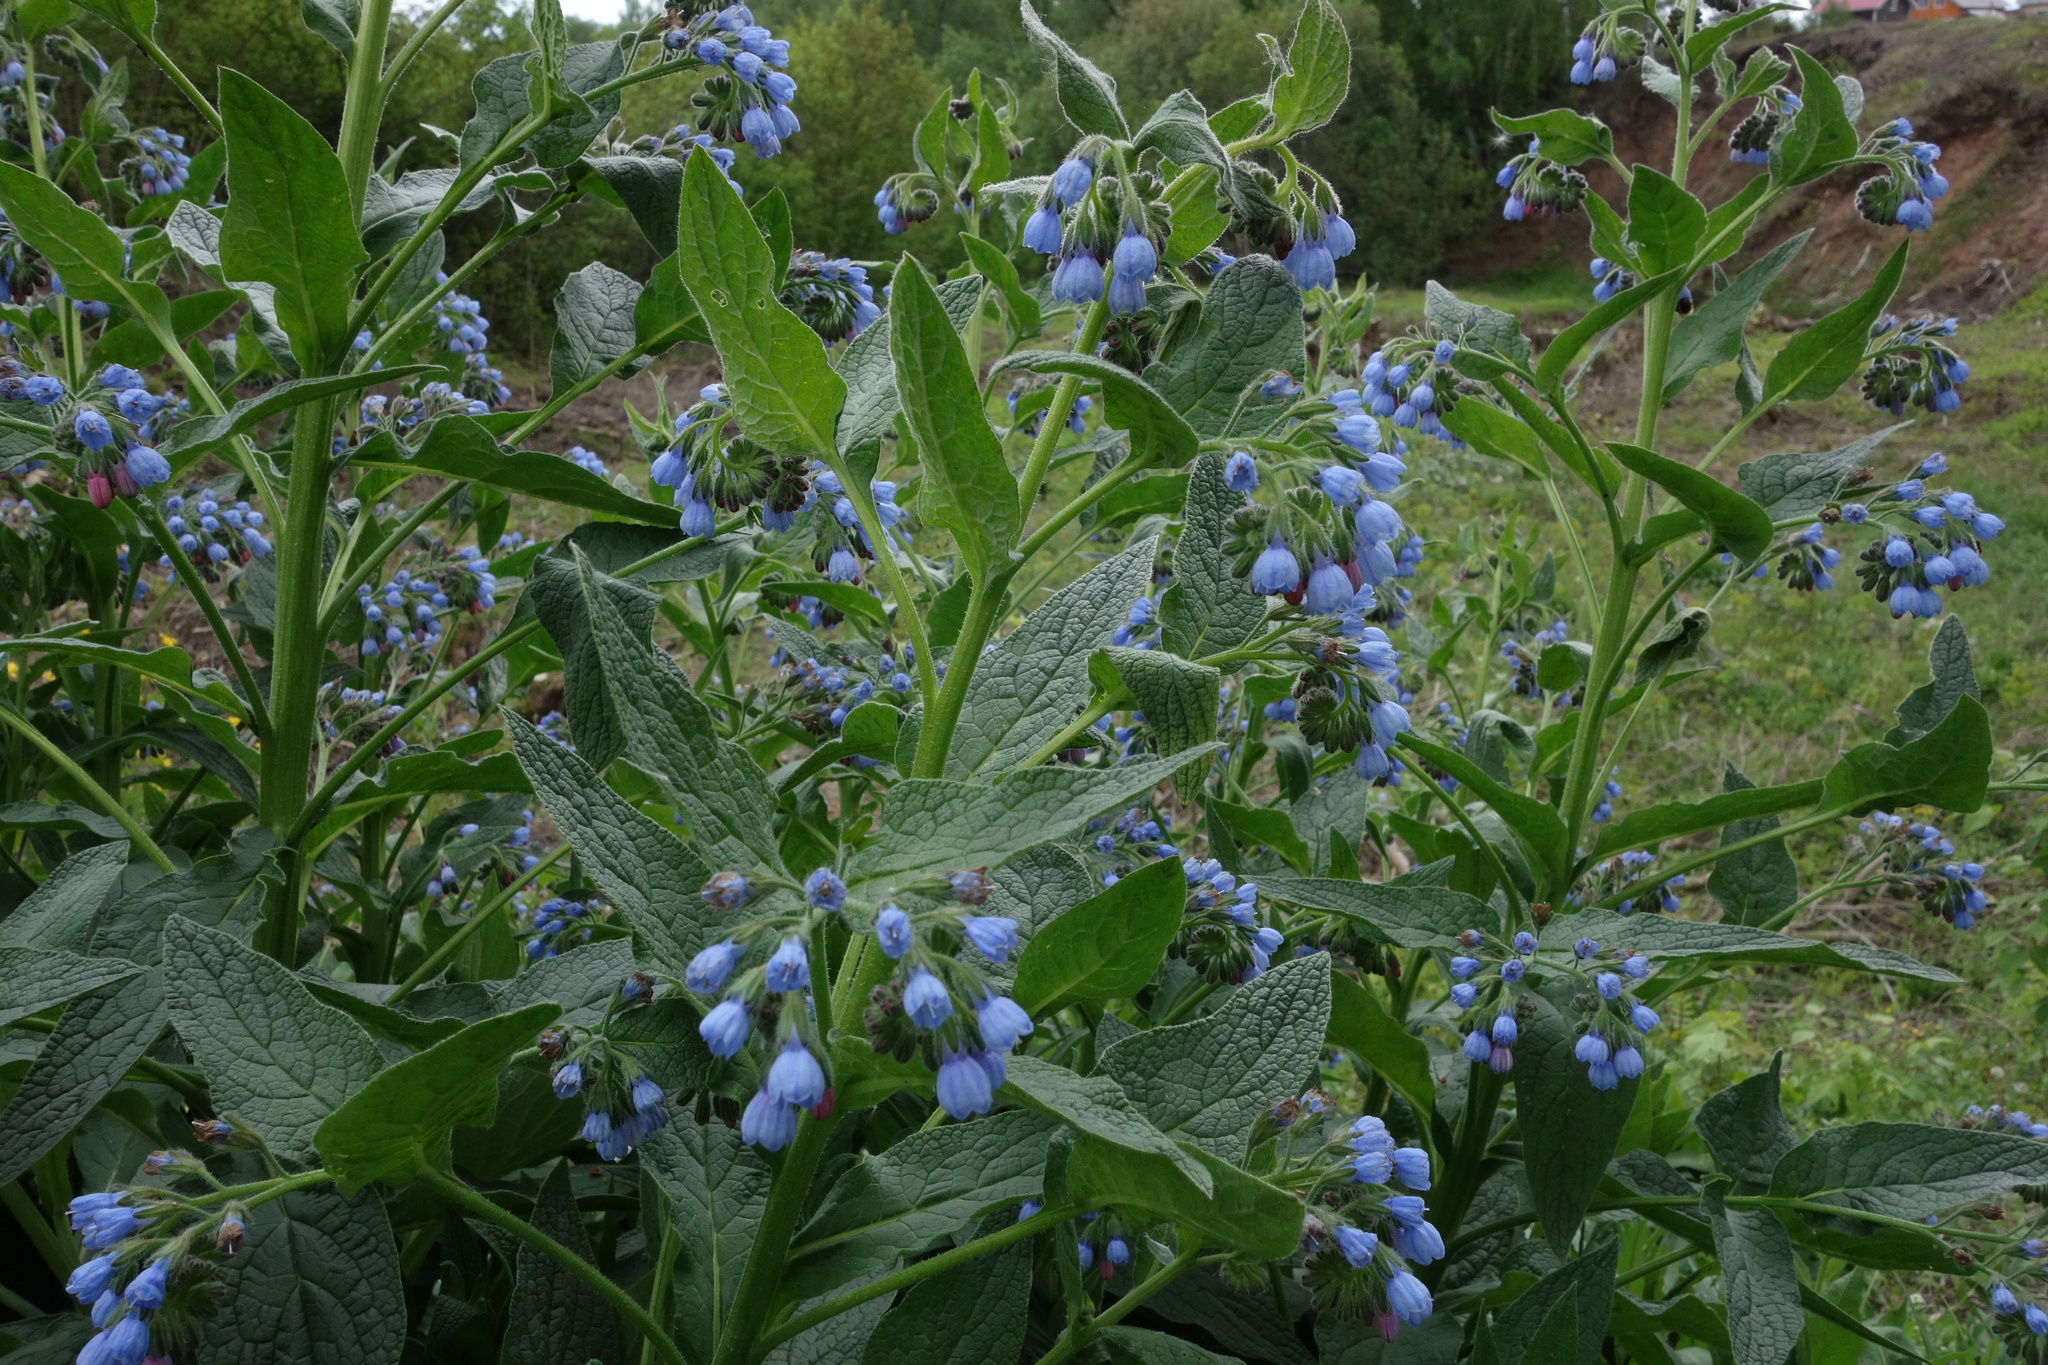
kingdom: Plantae
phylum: Tracheophyta
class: Magnoliopsida
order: Boraginales
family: Boraginaceae
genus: Symphytum
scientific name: Symphytum caucasicum
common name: Caucasian comfrey
